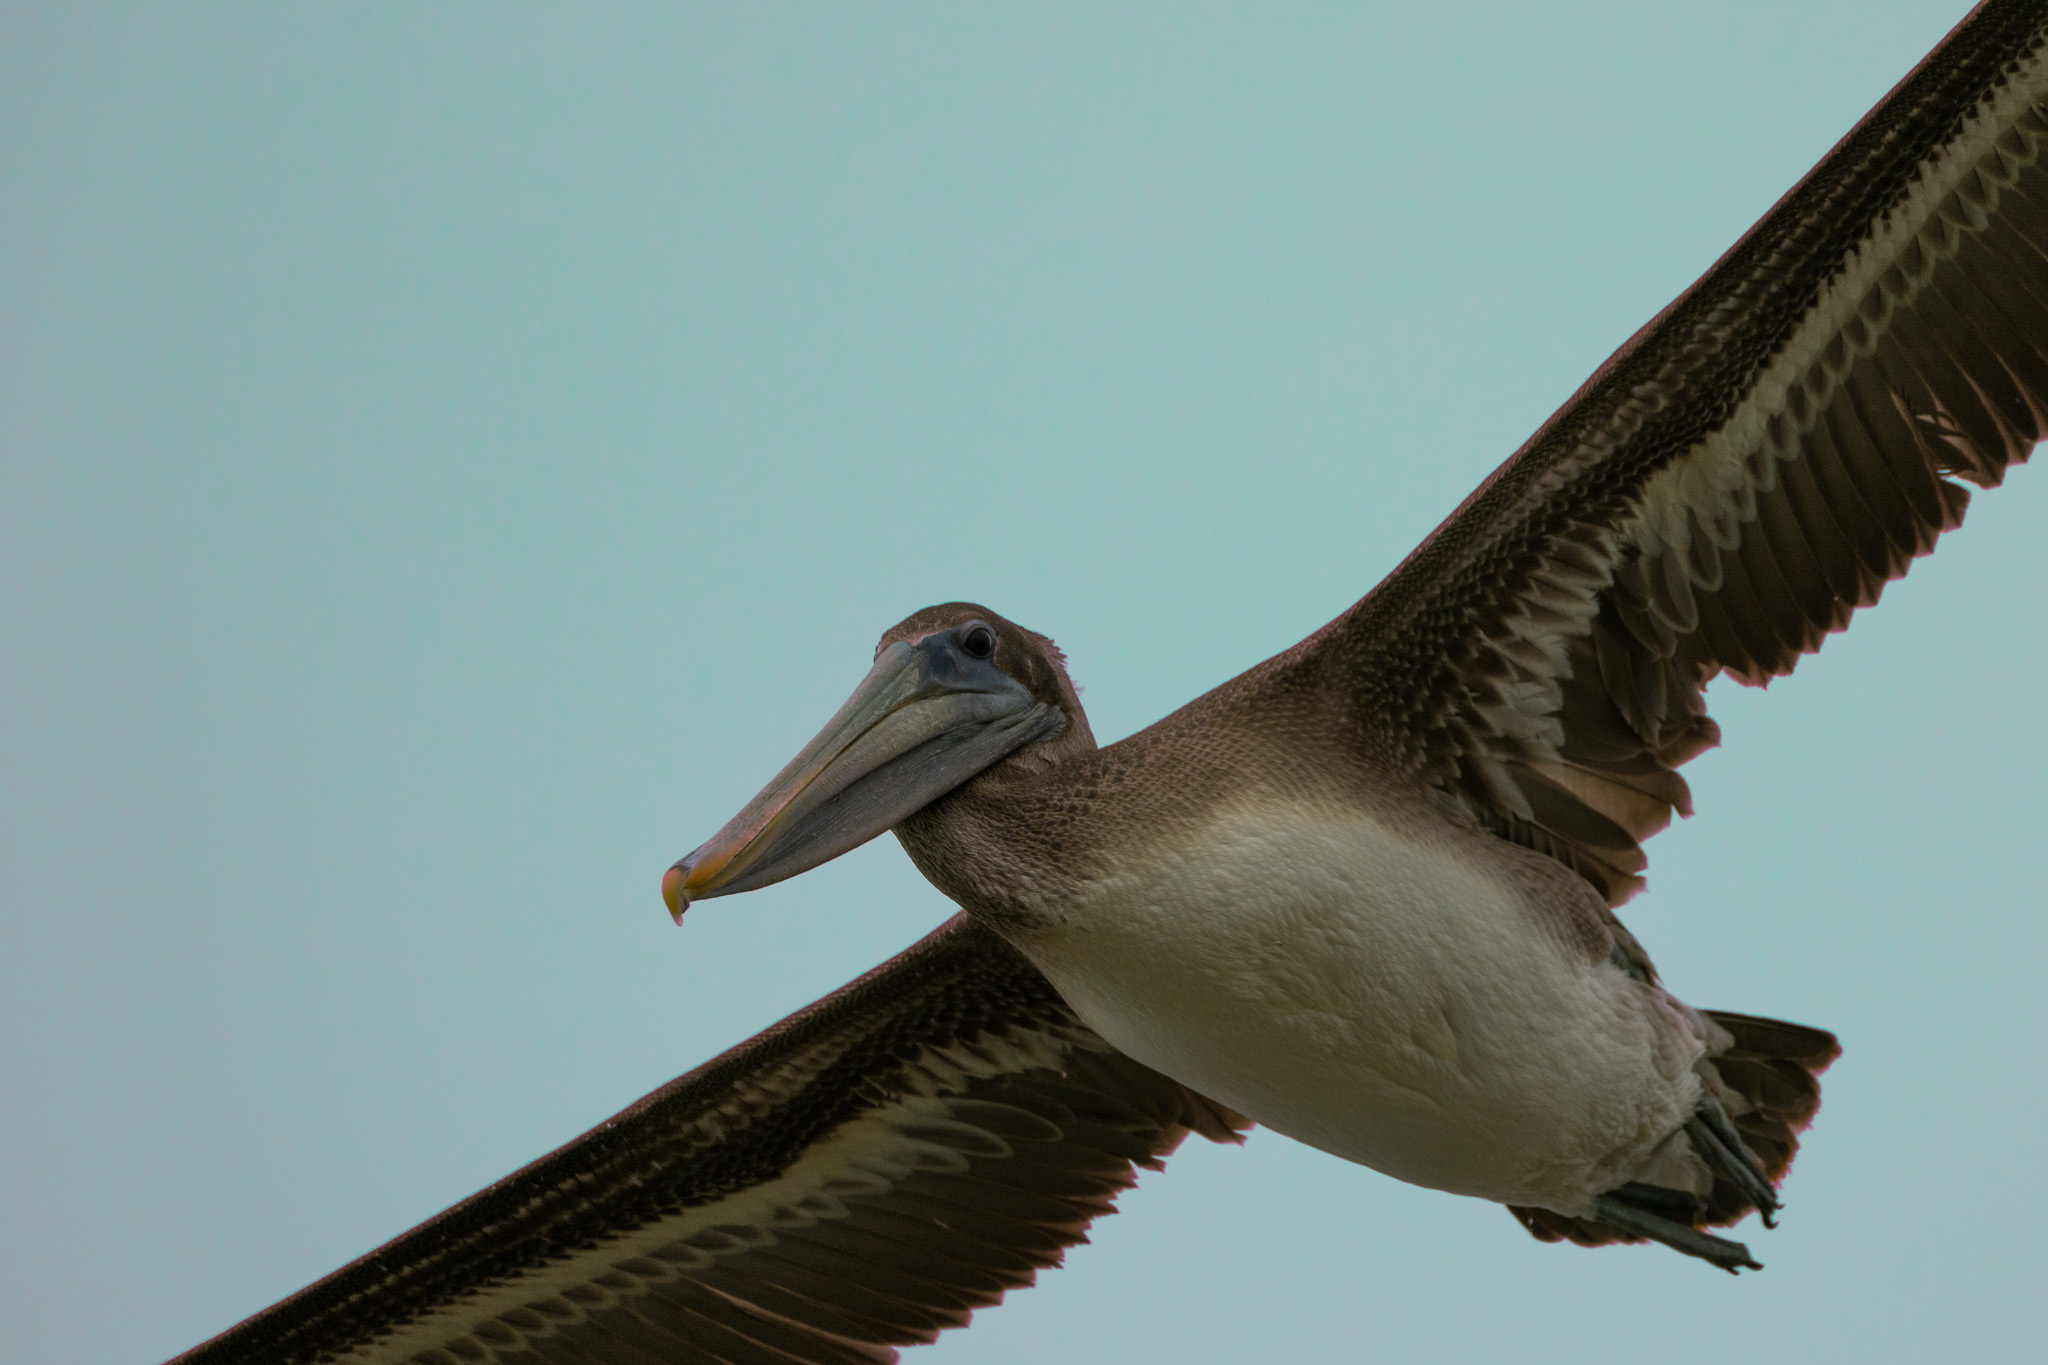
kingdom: Animalia
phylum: Chordata
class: Aves
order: Pelecaniformes
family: Pelecanidae
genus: Pelecanus
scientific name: Pelecanus occidentalis
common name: Brown pelican
